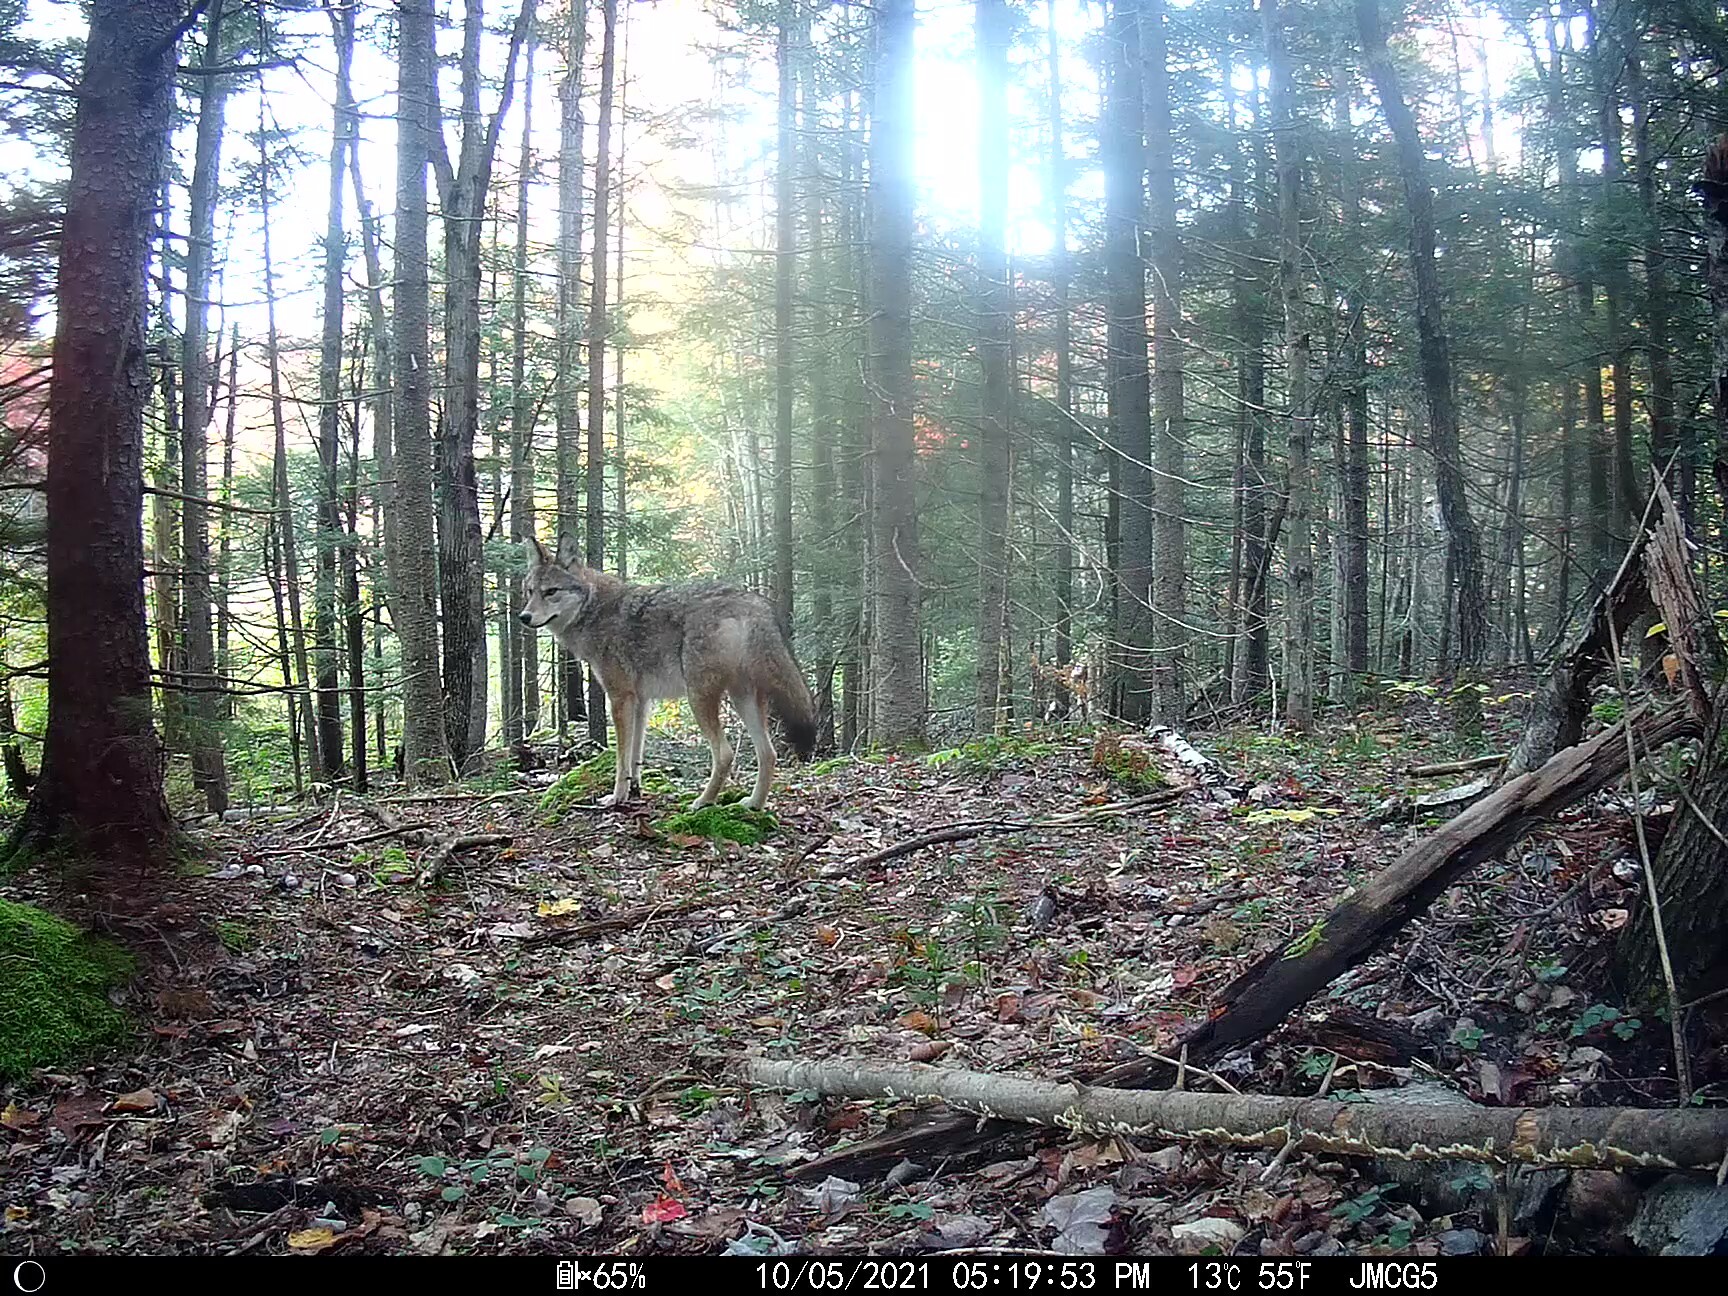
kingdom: Animalia
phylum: Chordata
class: Mammalia
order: Carnivora
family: Canidae
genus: Canis
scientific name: Canis latrans
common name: Coyote
